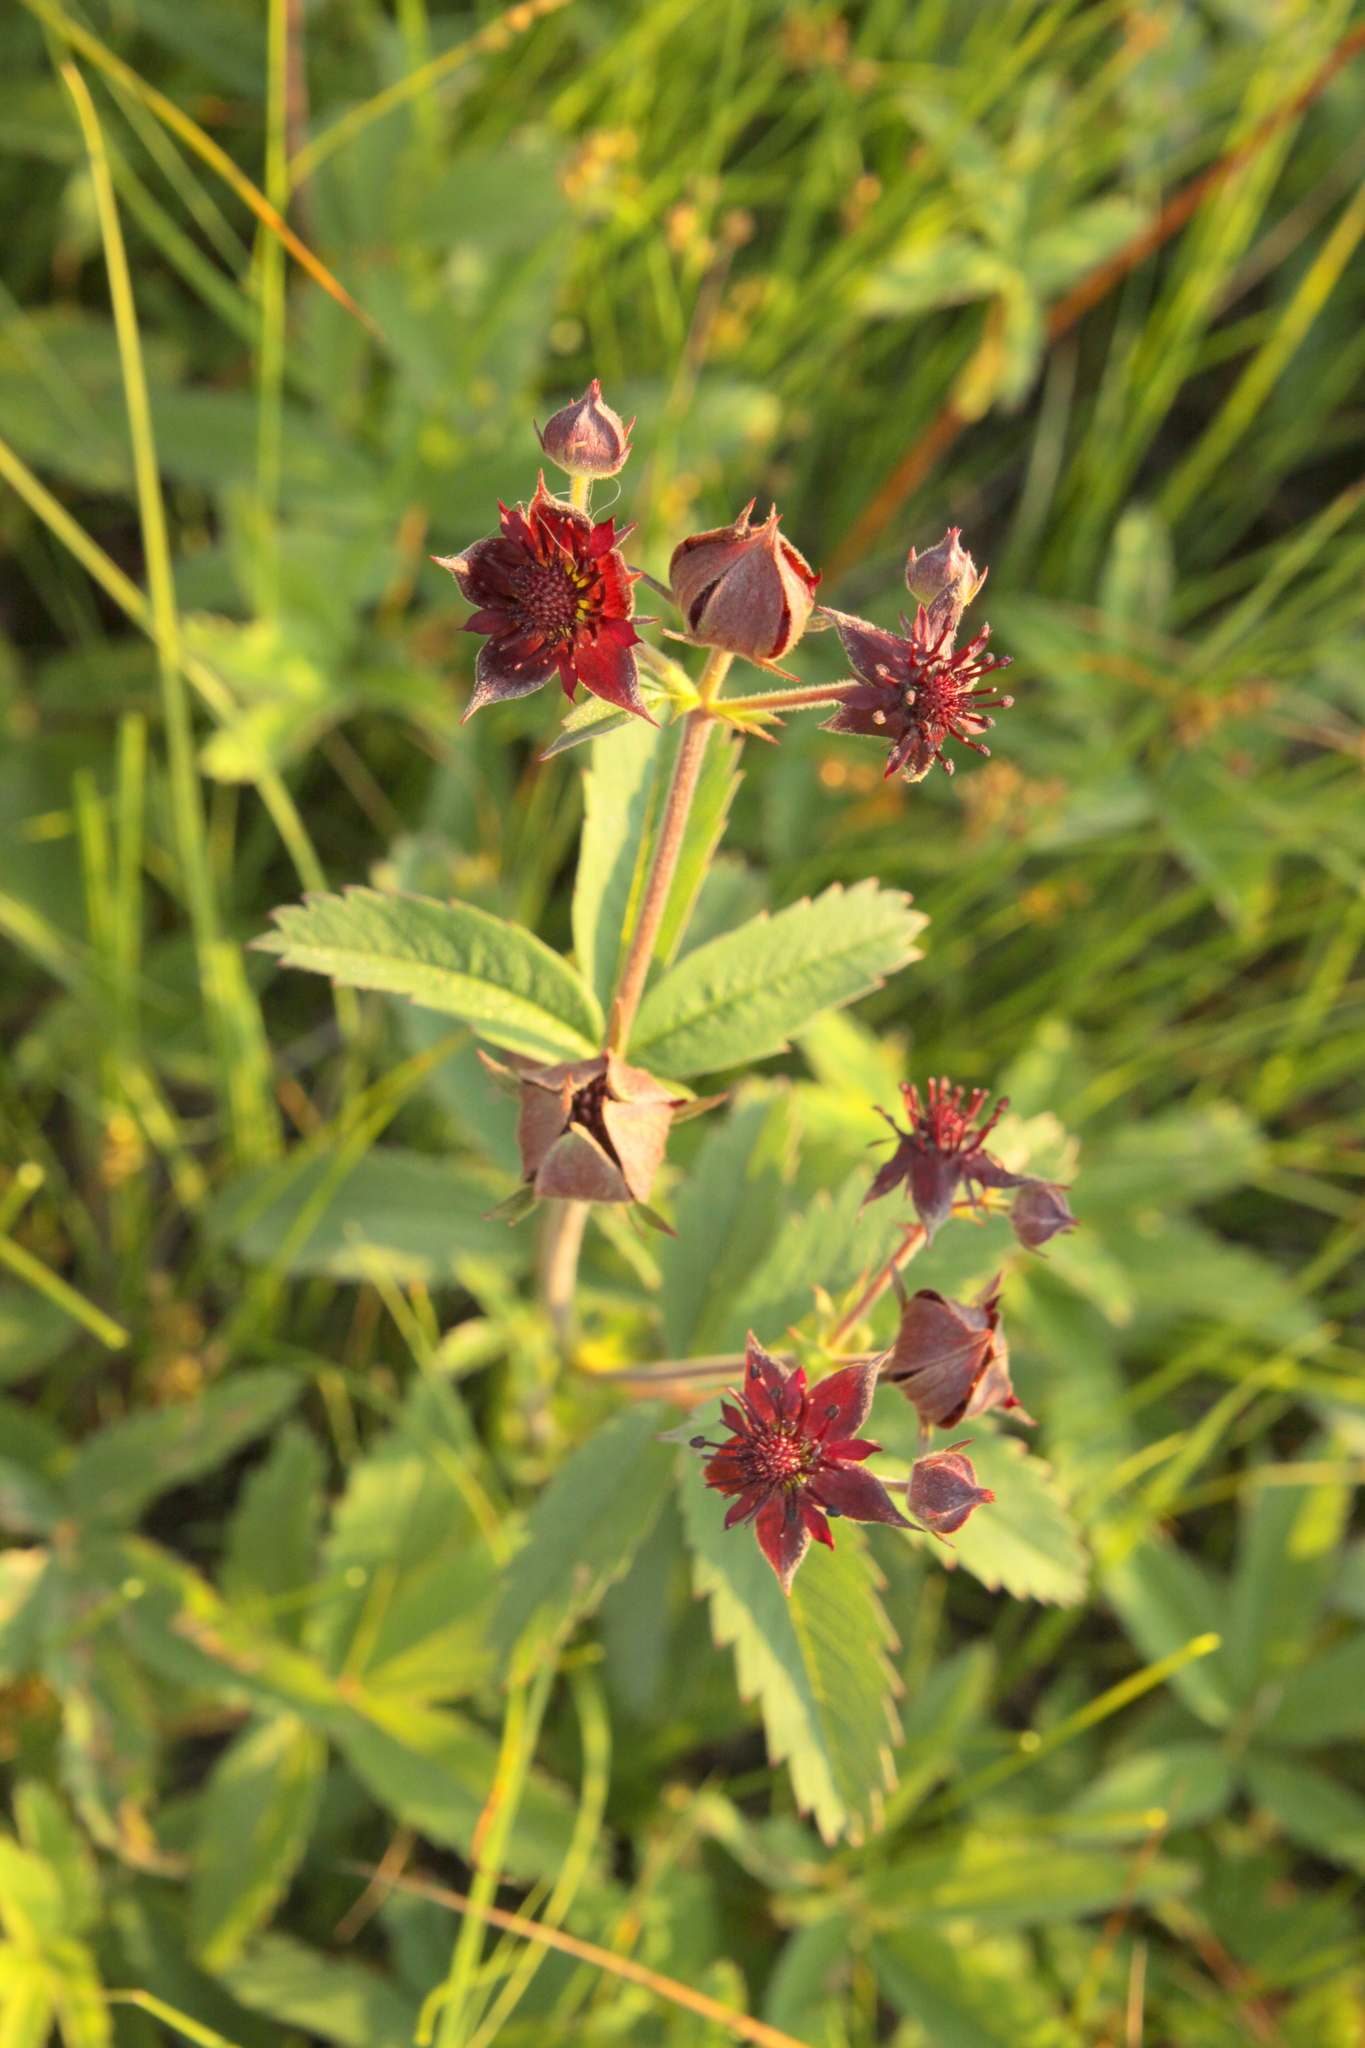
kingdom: Plantae
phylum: Tracheophyta
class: Magnoliopsida
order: Rosales
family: Rosaceae
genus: Comarum
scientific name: Comarum palustre
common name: Marsh cinquefoil
